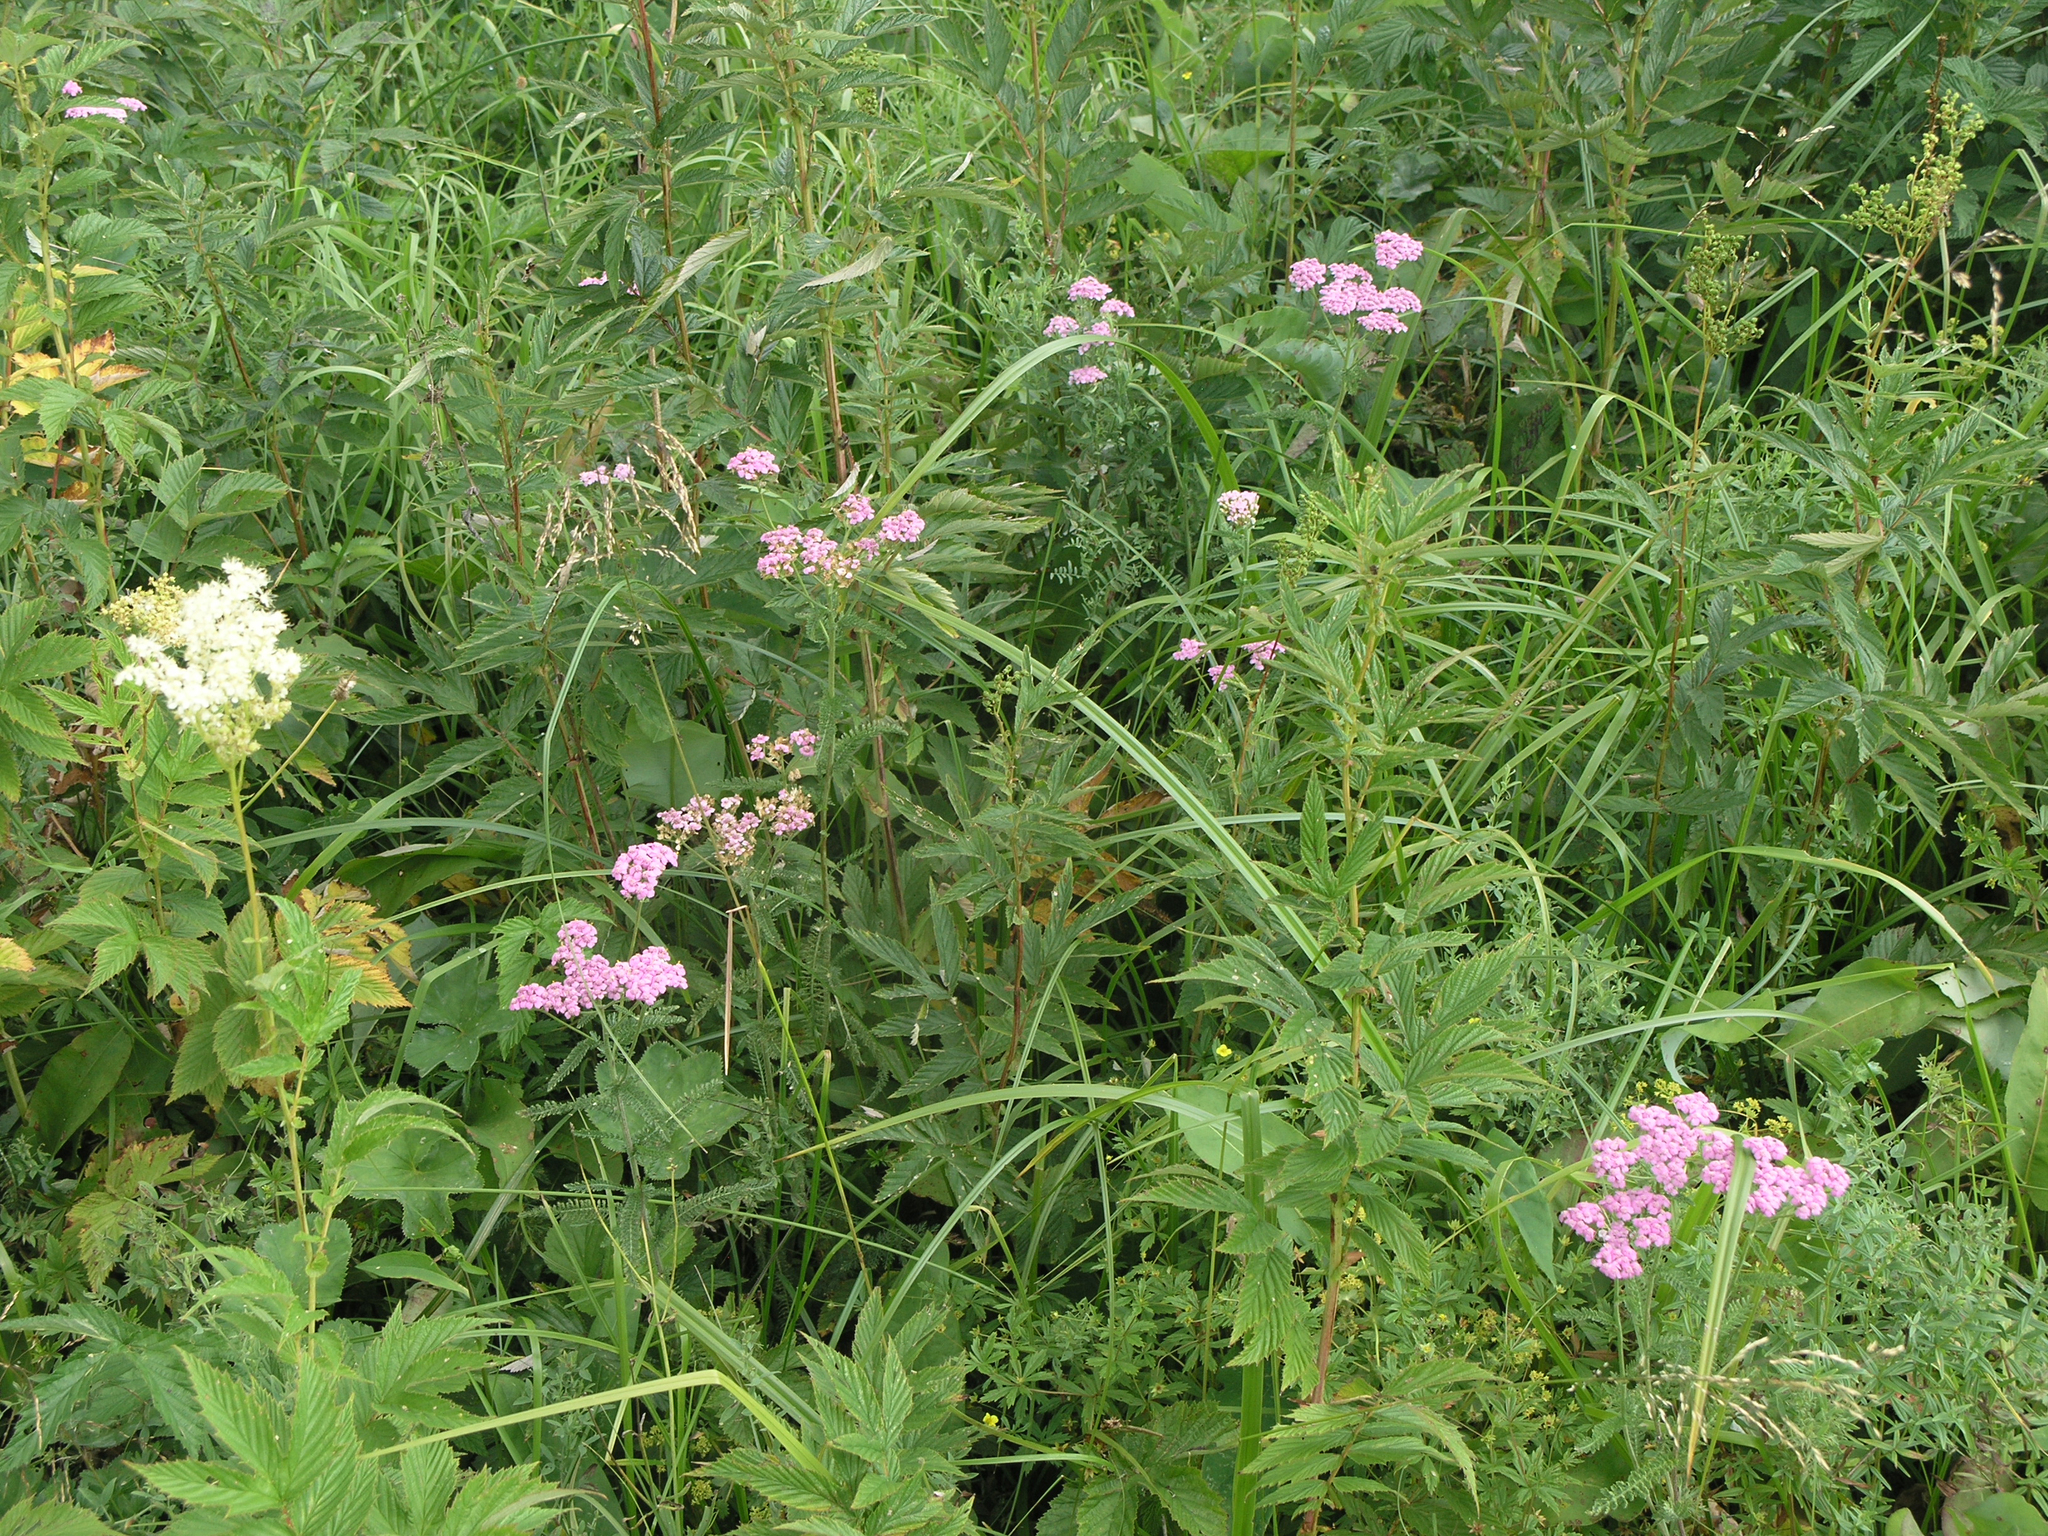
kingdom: Plantae
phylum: Tracheophyta
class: Magnoliopsida
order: Asterales
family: Asteraceae
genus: Achillea
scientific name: Achillea millefolium
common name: Yarrow
